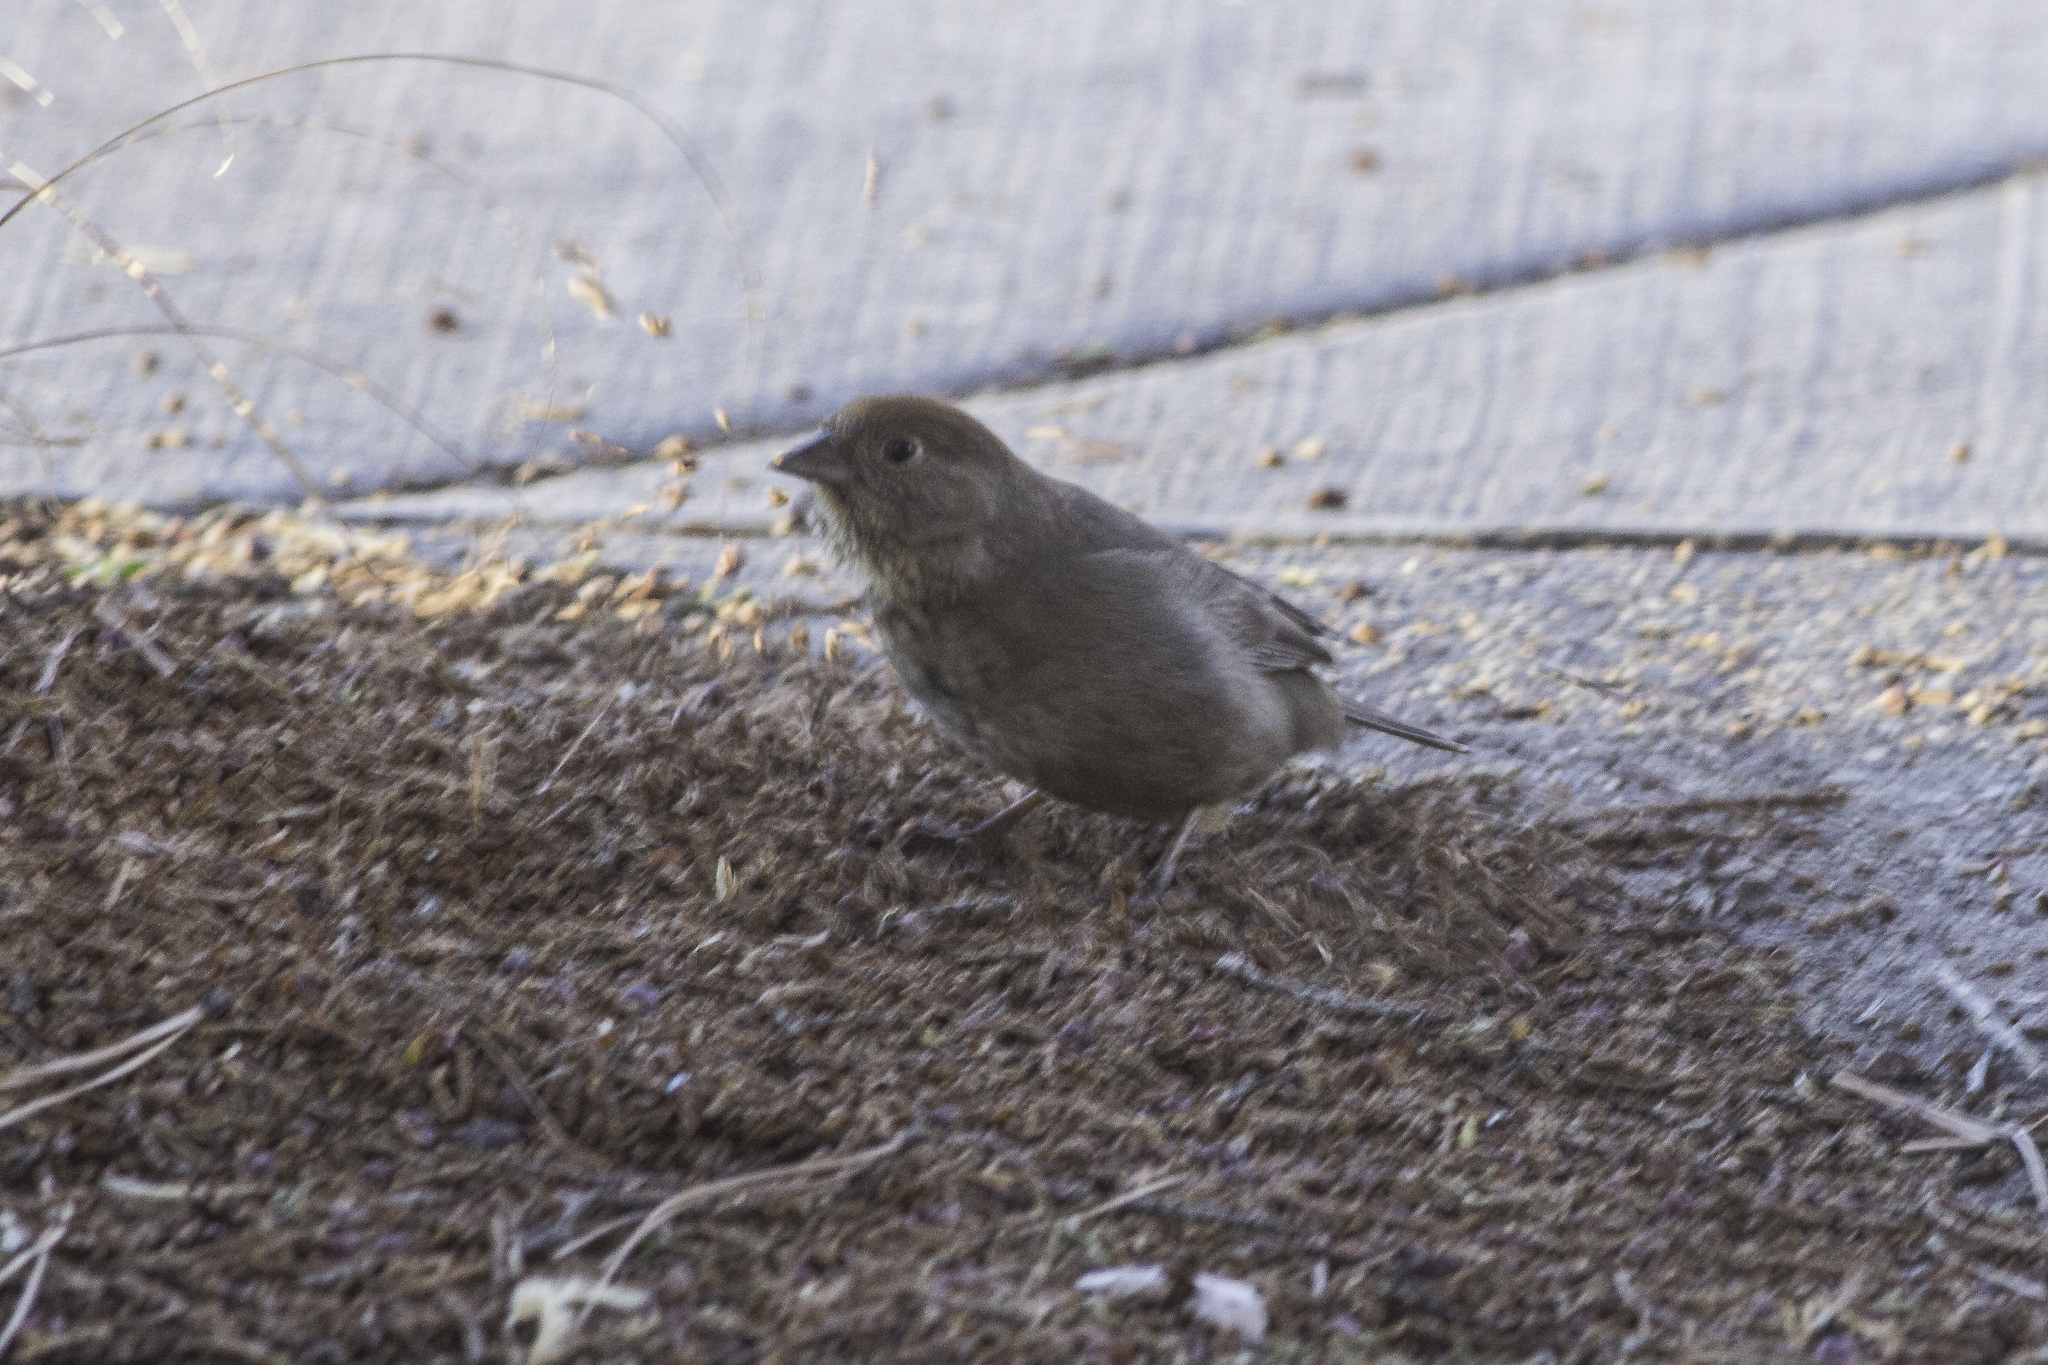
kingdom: Animalia
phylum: Chordata
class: Aves
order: Passeriformes
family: Passerellidae
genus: Melozone
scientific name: Melozone fusca
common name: Canyon towhee
